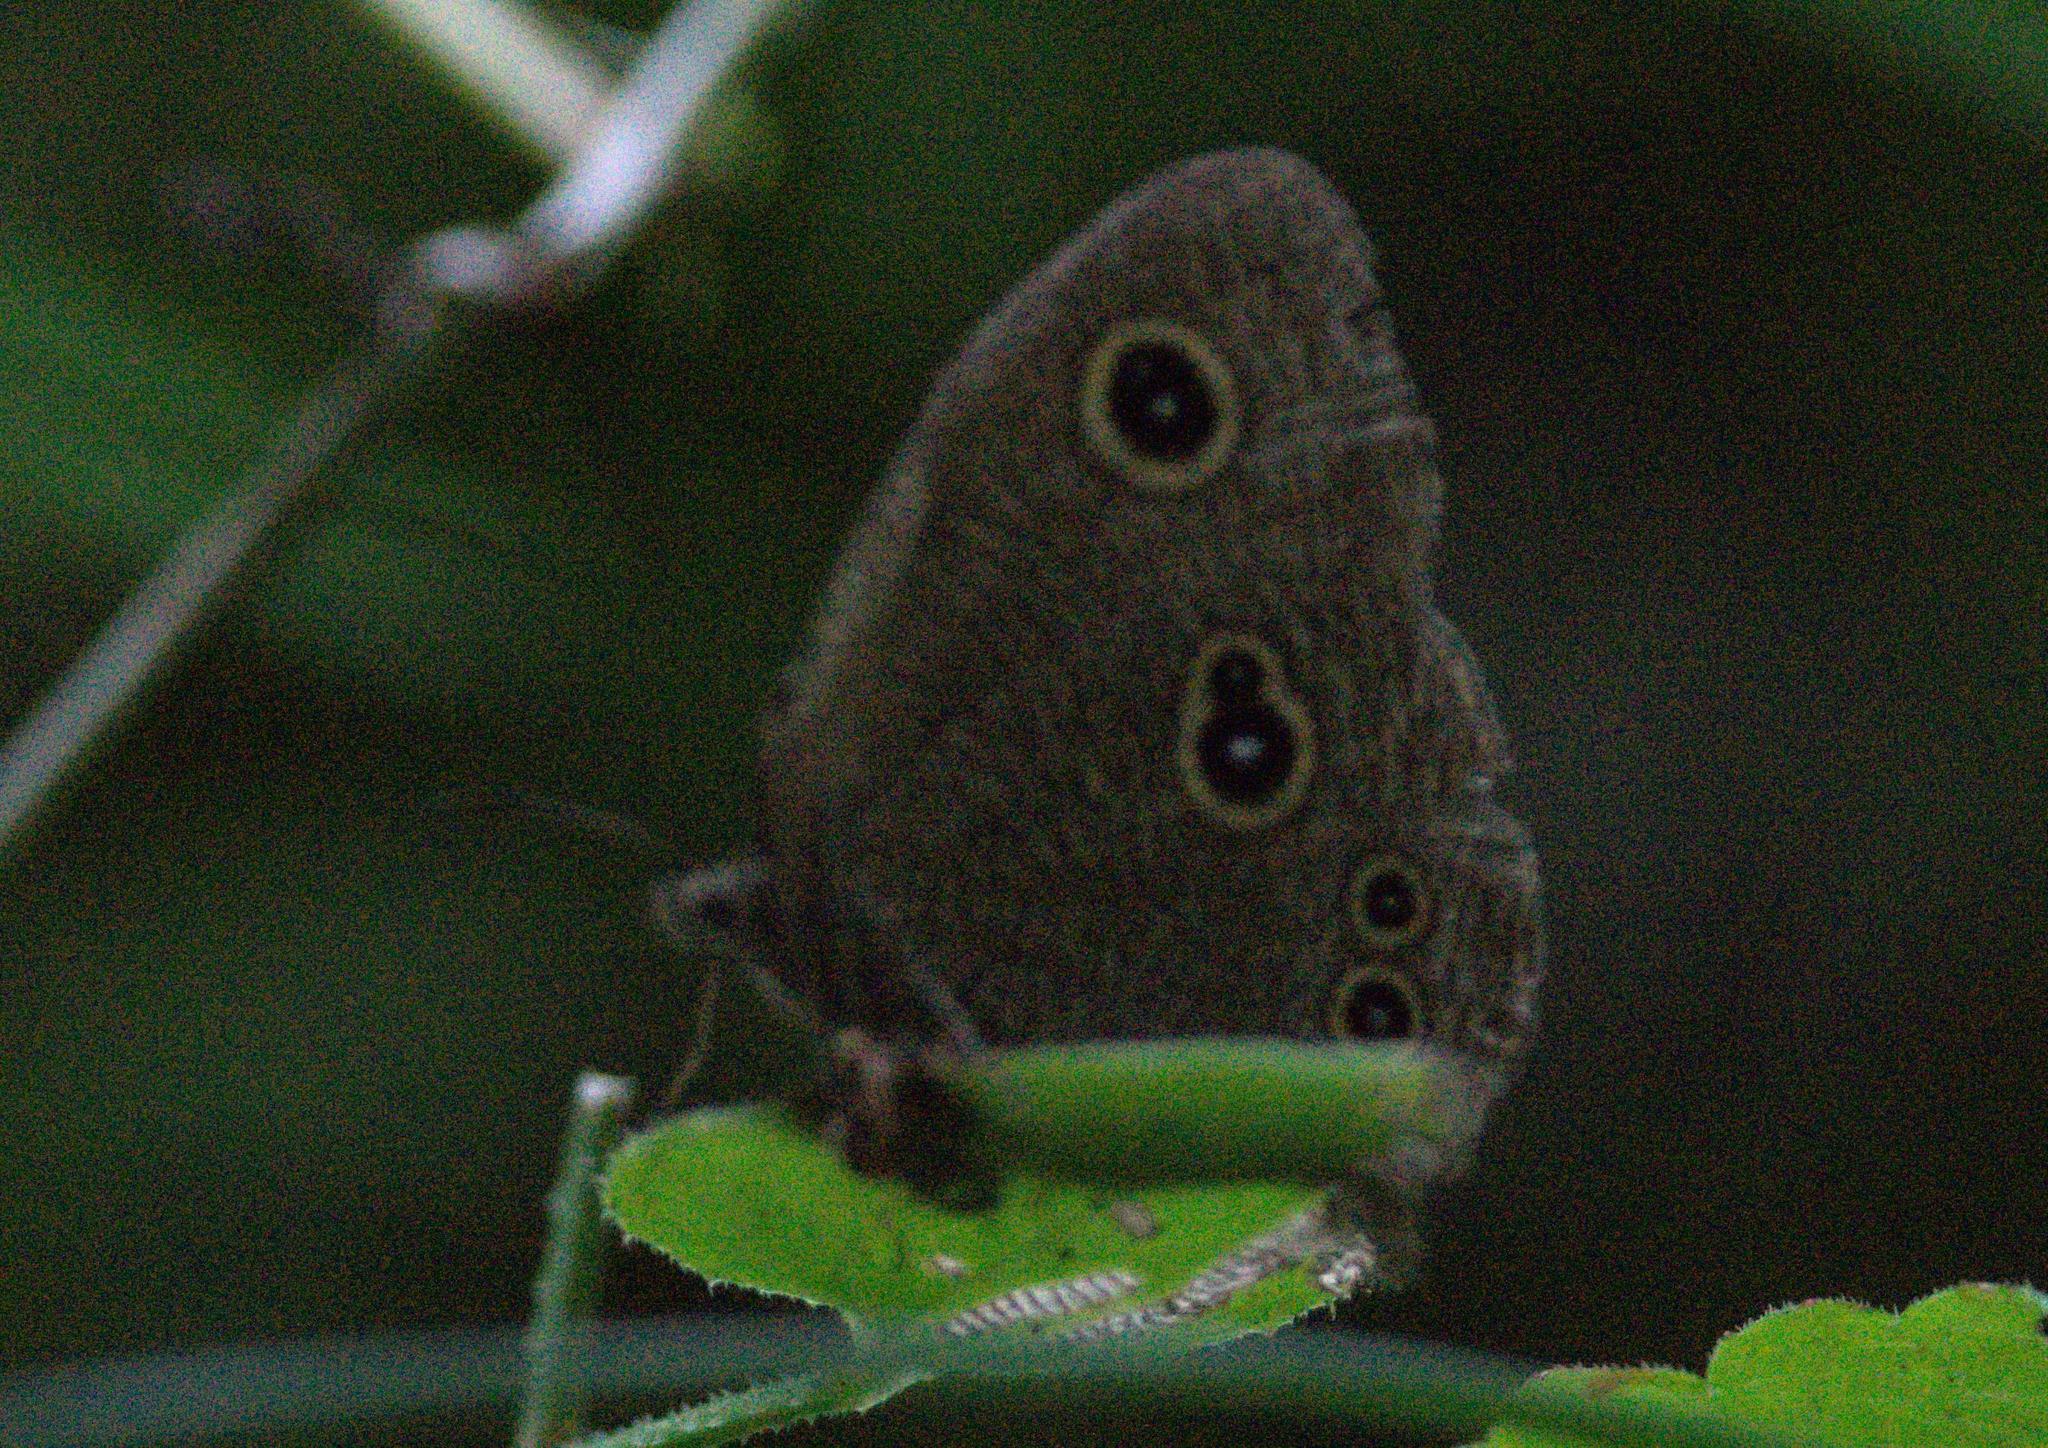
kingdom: Animalia
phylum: Arthropoda
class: Insecta
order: Lepidoptera
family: Nymphalidae
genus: Ypthima
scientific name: Ypthima nikaea
